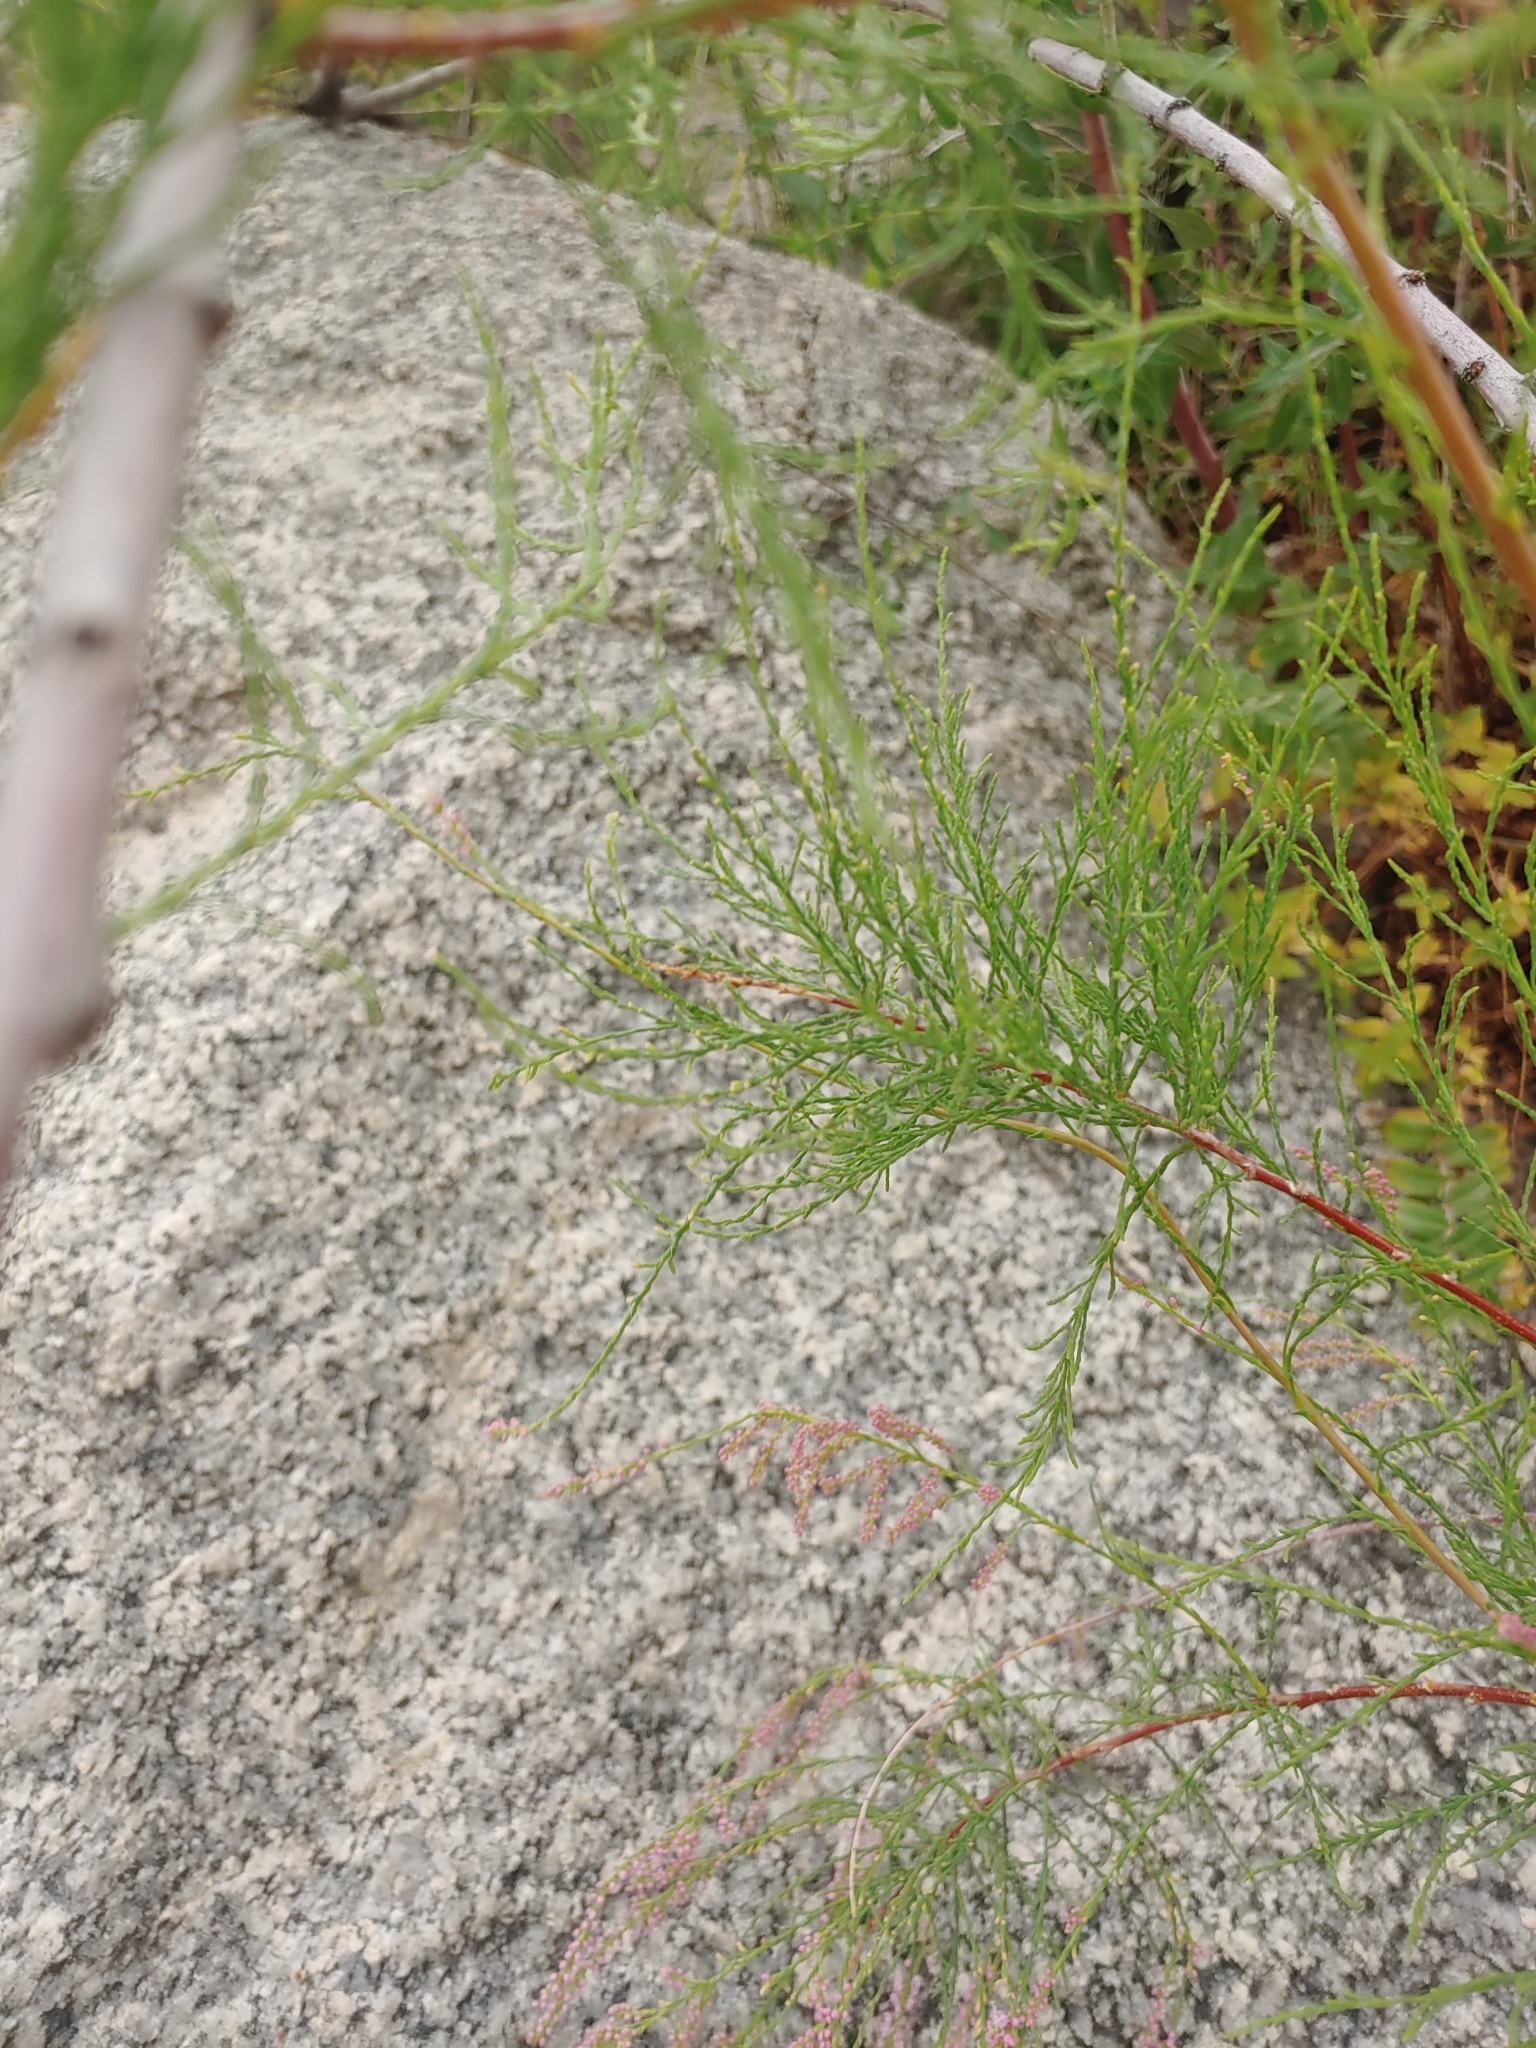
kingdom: Plantae
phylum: Tracheophyta
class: Magnoliopsida
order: Caryophyllales
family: Tamaricaceae
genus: Tamarix
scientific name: Tamarix chinensis
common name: Chinese tamarisk
